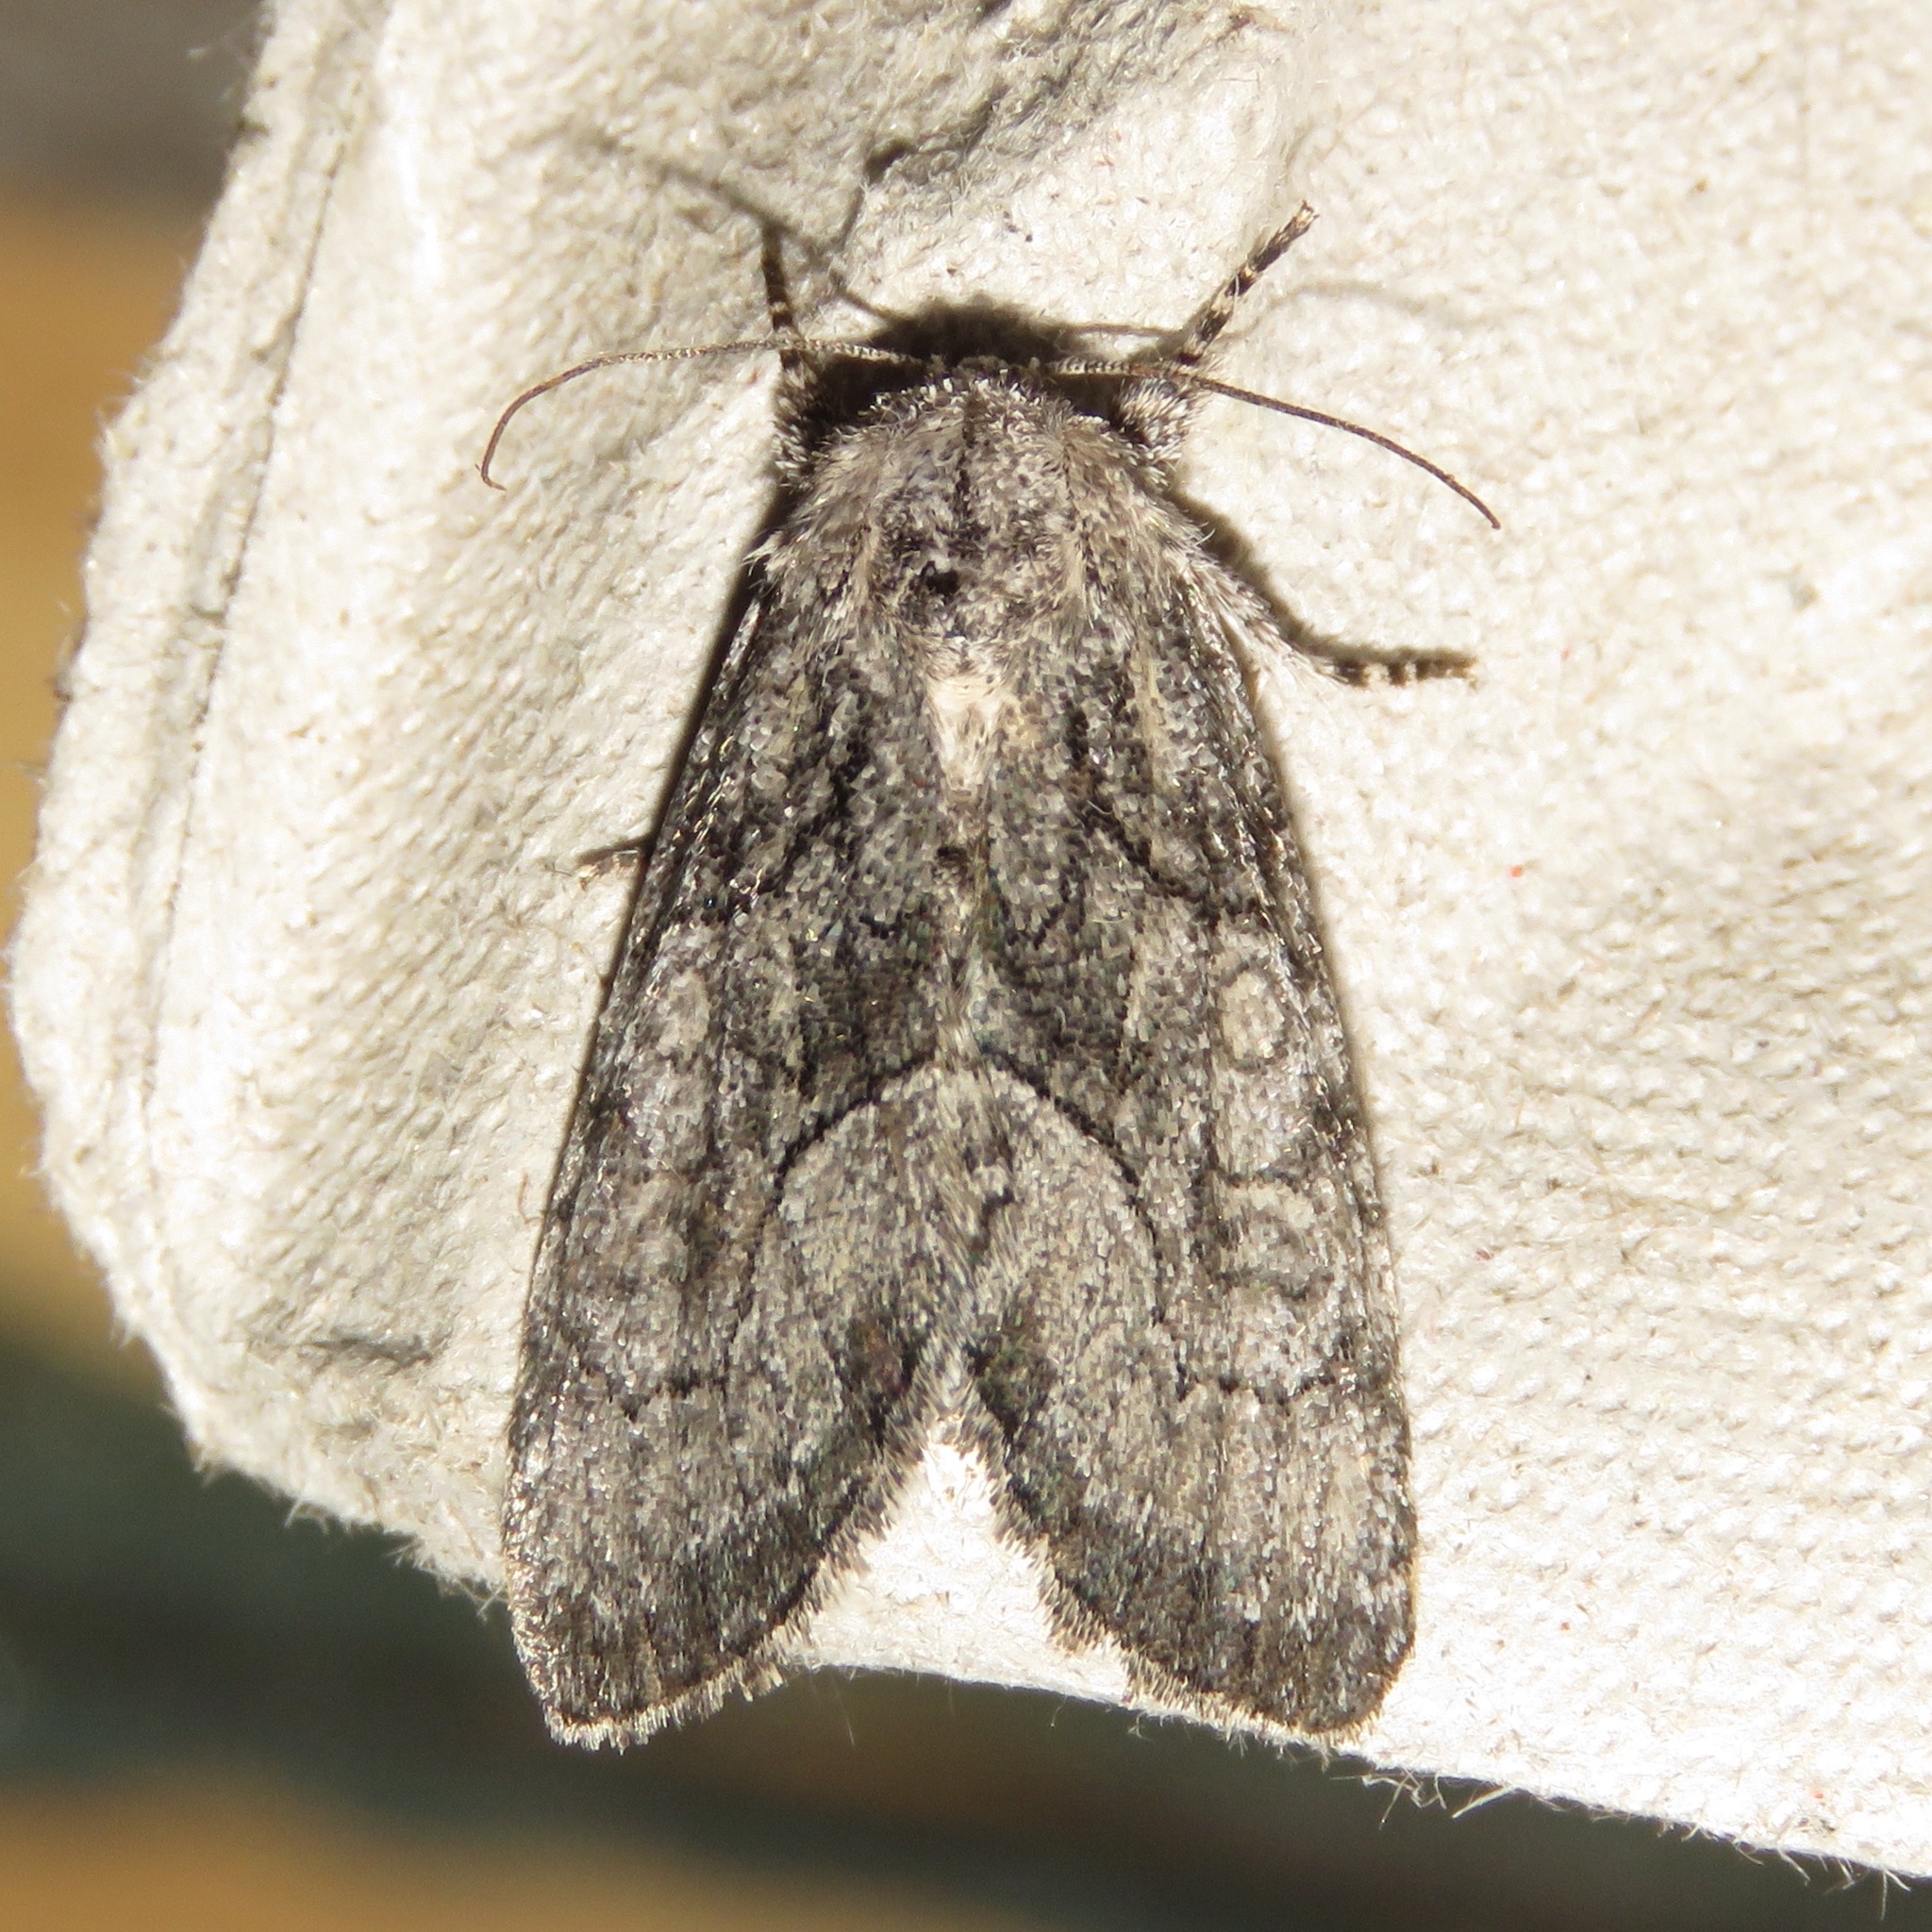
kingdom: Animalia
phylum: Arthropoda
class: Insecta
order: Lepidoptera
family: Noctuidae
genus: Raphia
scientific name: Raphia frater
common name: Brother
